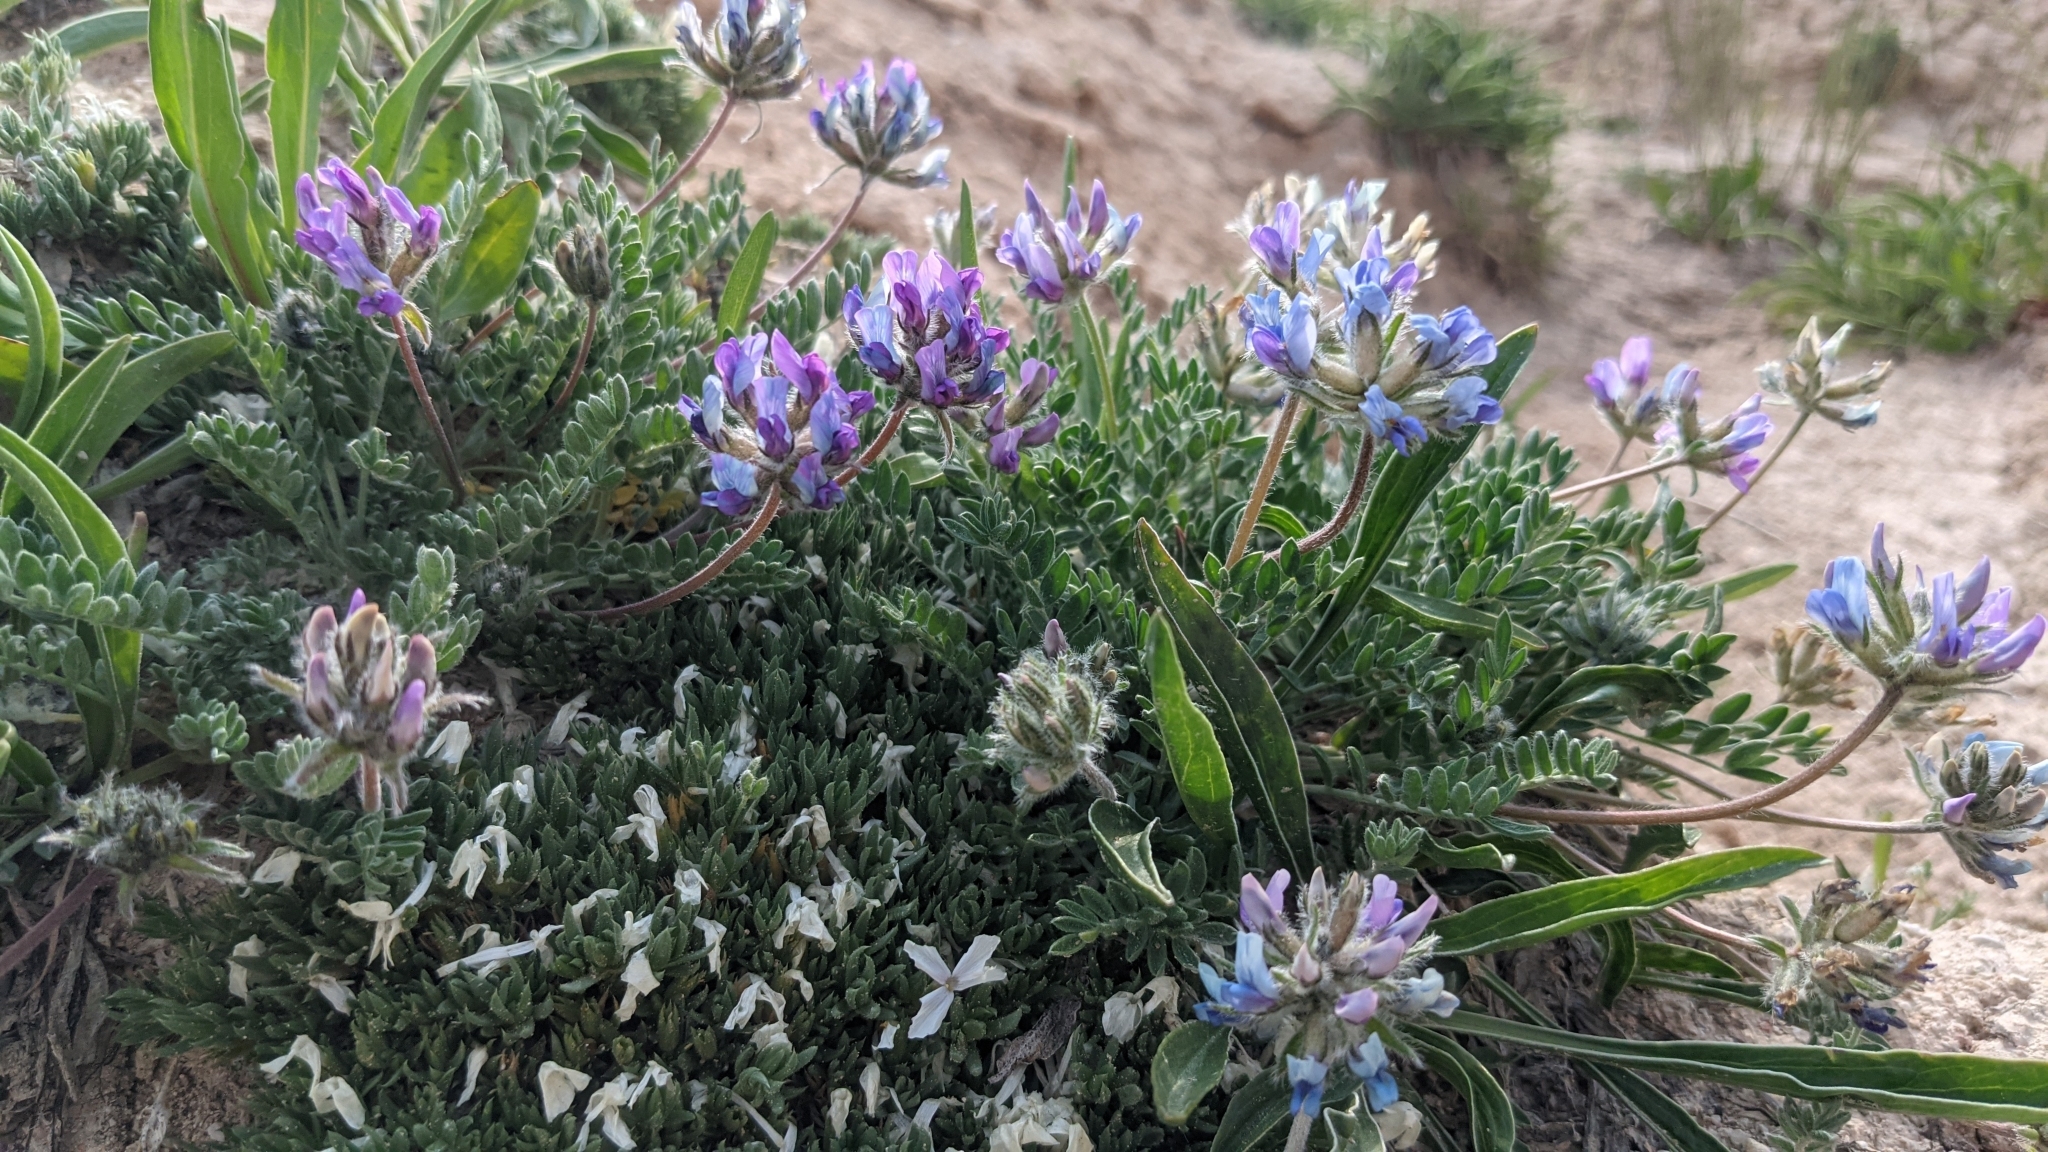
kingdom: Plantae
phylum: Tracheophyta
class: Magnoliopsida
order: Fabales
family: Fabaceae
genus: Oxytropis
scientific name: Oxytropis oreophila
